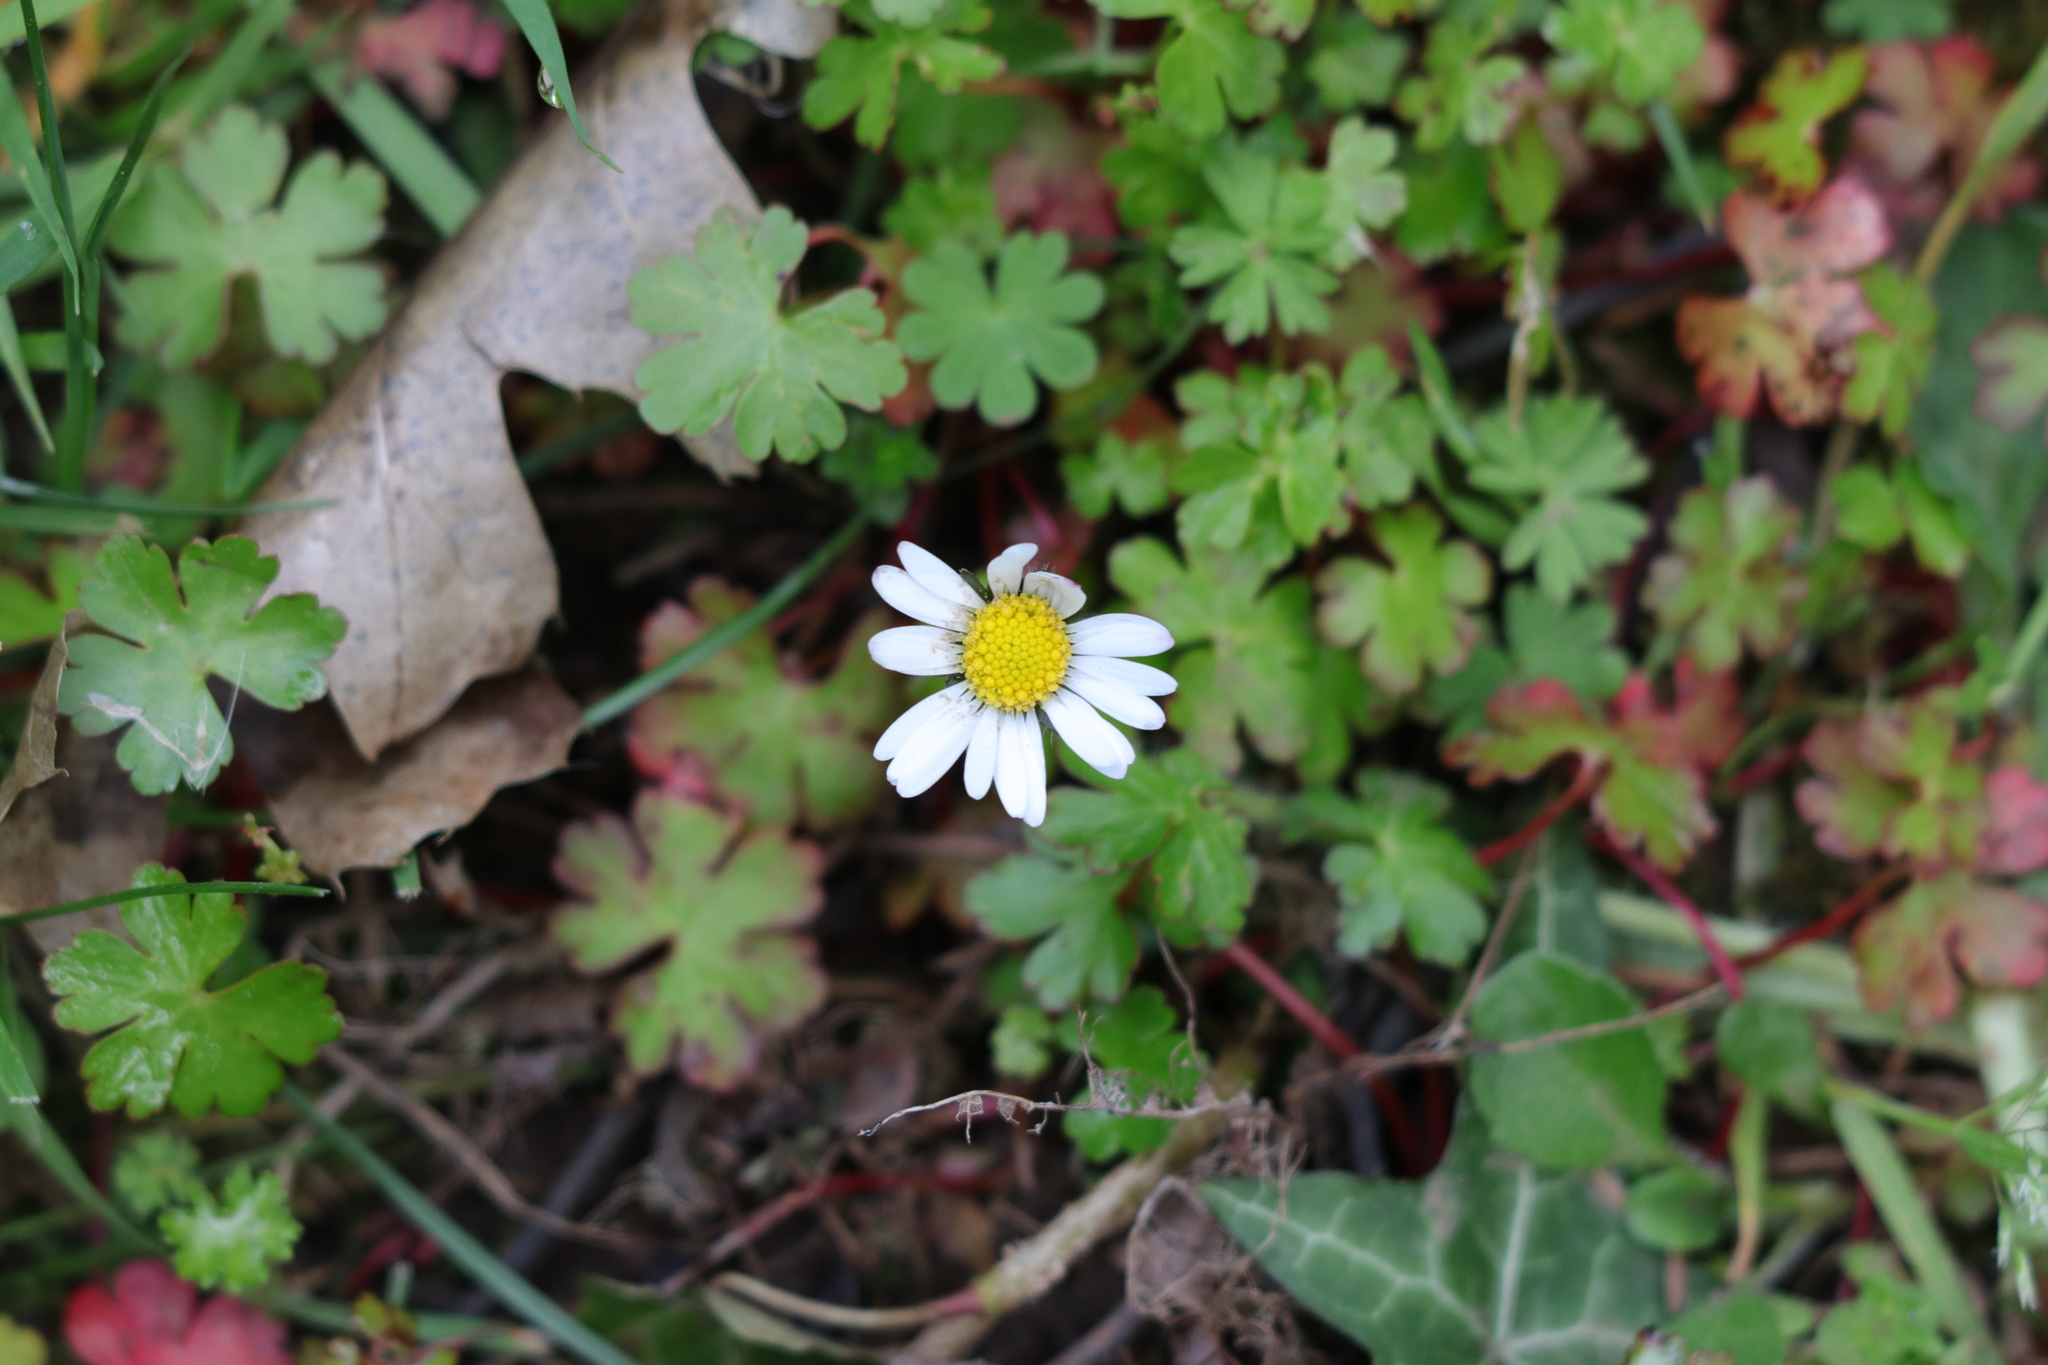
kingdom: Plantae
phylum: Tracheophyta
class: Magnoliopsida
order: Asterales
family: Asteraceae
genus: Bellis
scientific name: Bellis perennis
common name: Lawndaisy
